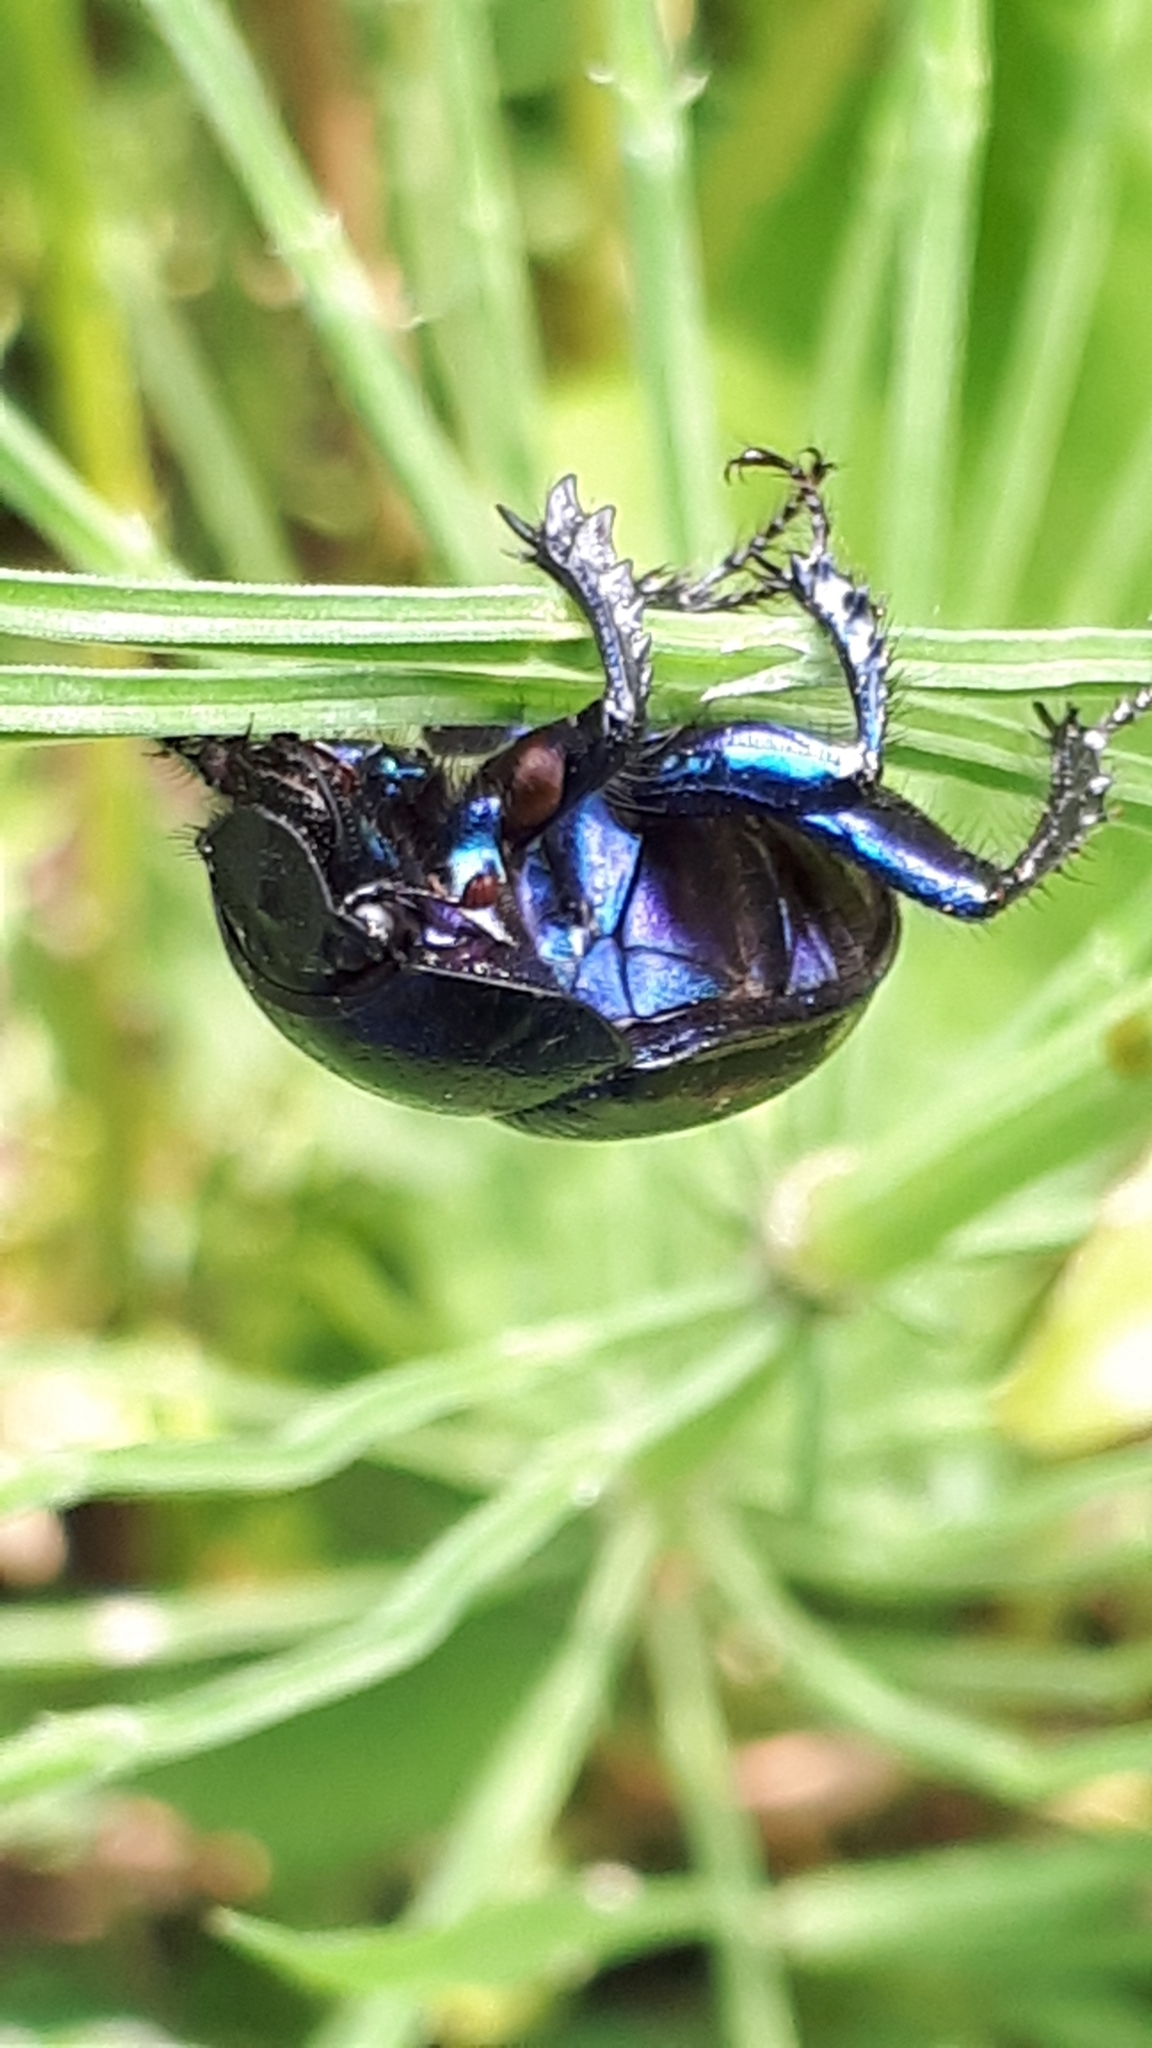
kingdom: Animalia
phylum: Arthropoda
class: Insecta
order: Coleoptera
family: Geotrupidae
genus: Anoplotrupes
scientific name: Anoplotrupes stercorosus
